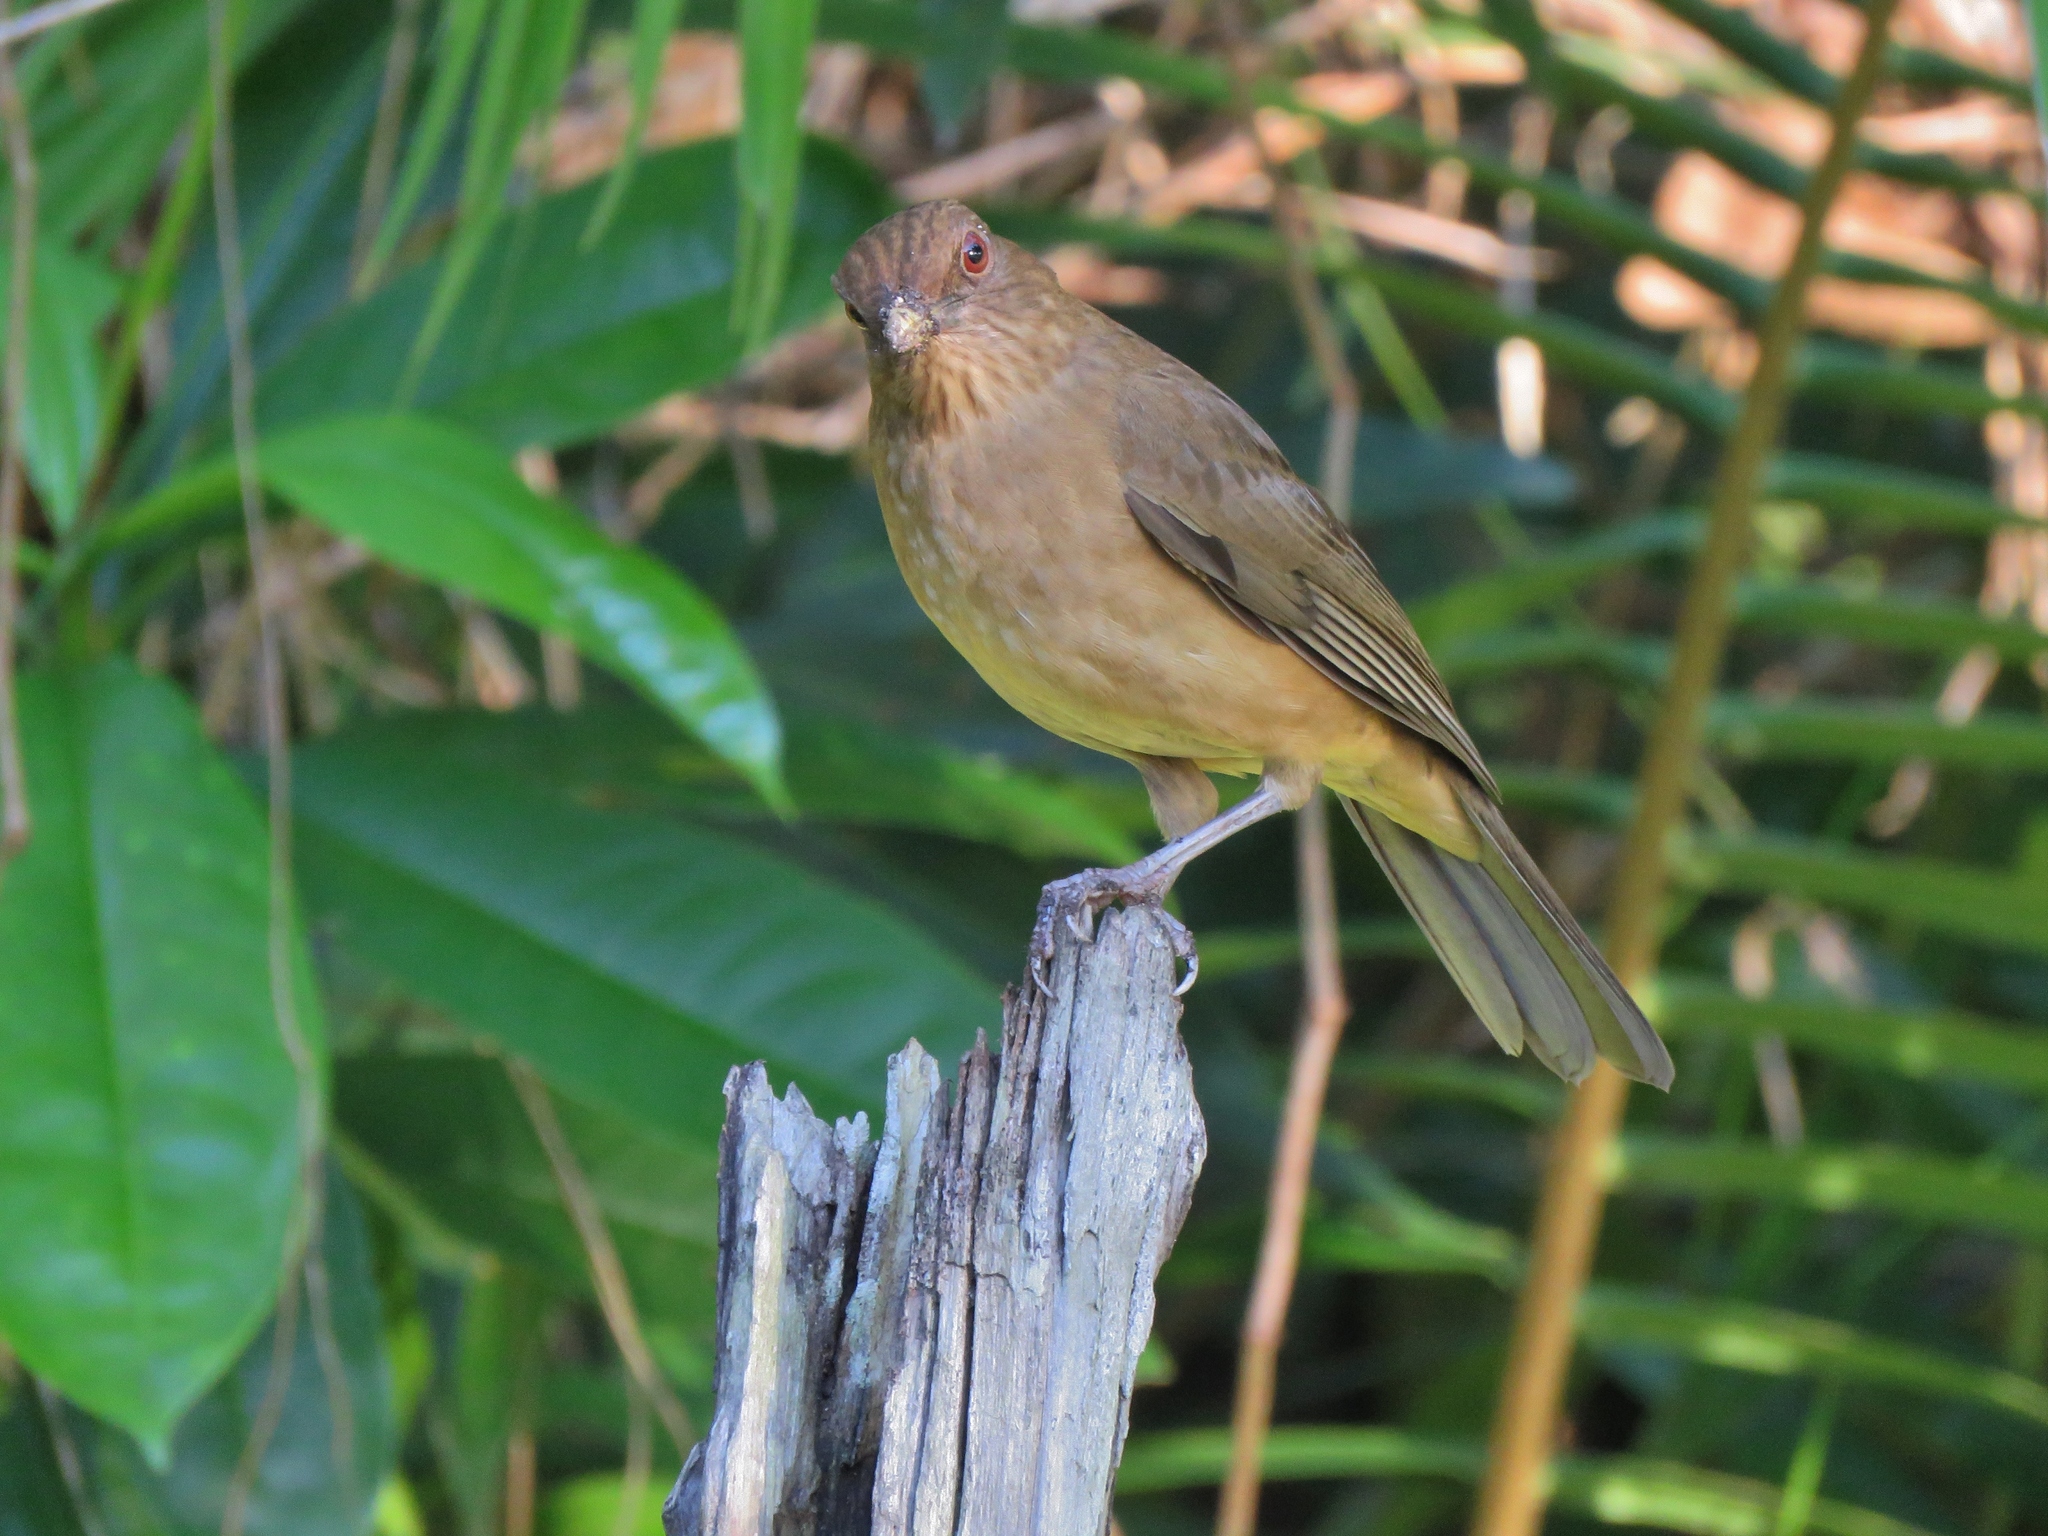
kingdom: Animalia
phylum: Chordata
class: Aves
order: Passeriformes
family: Turdidae
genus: Turdus
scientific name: Turdus grayi
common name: Clay-colored thrush
